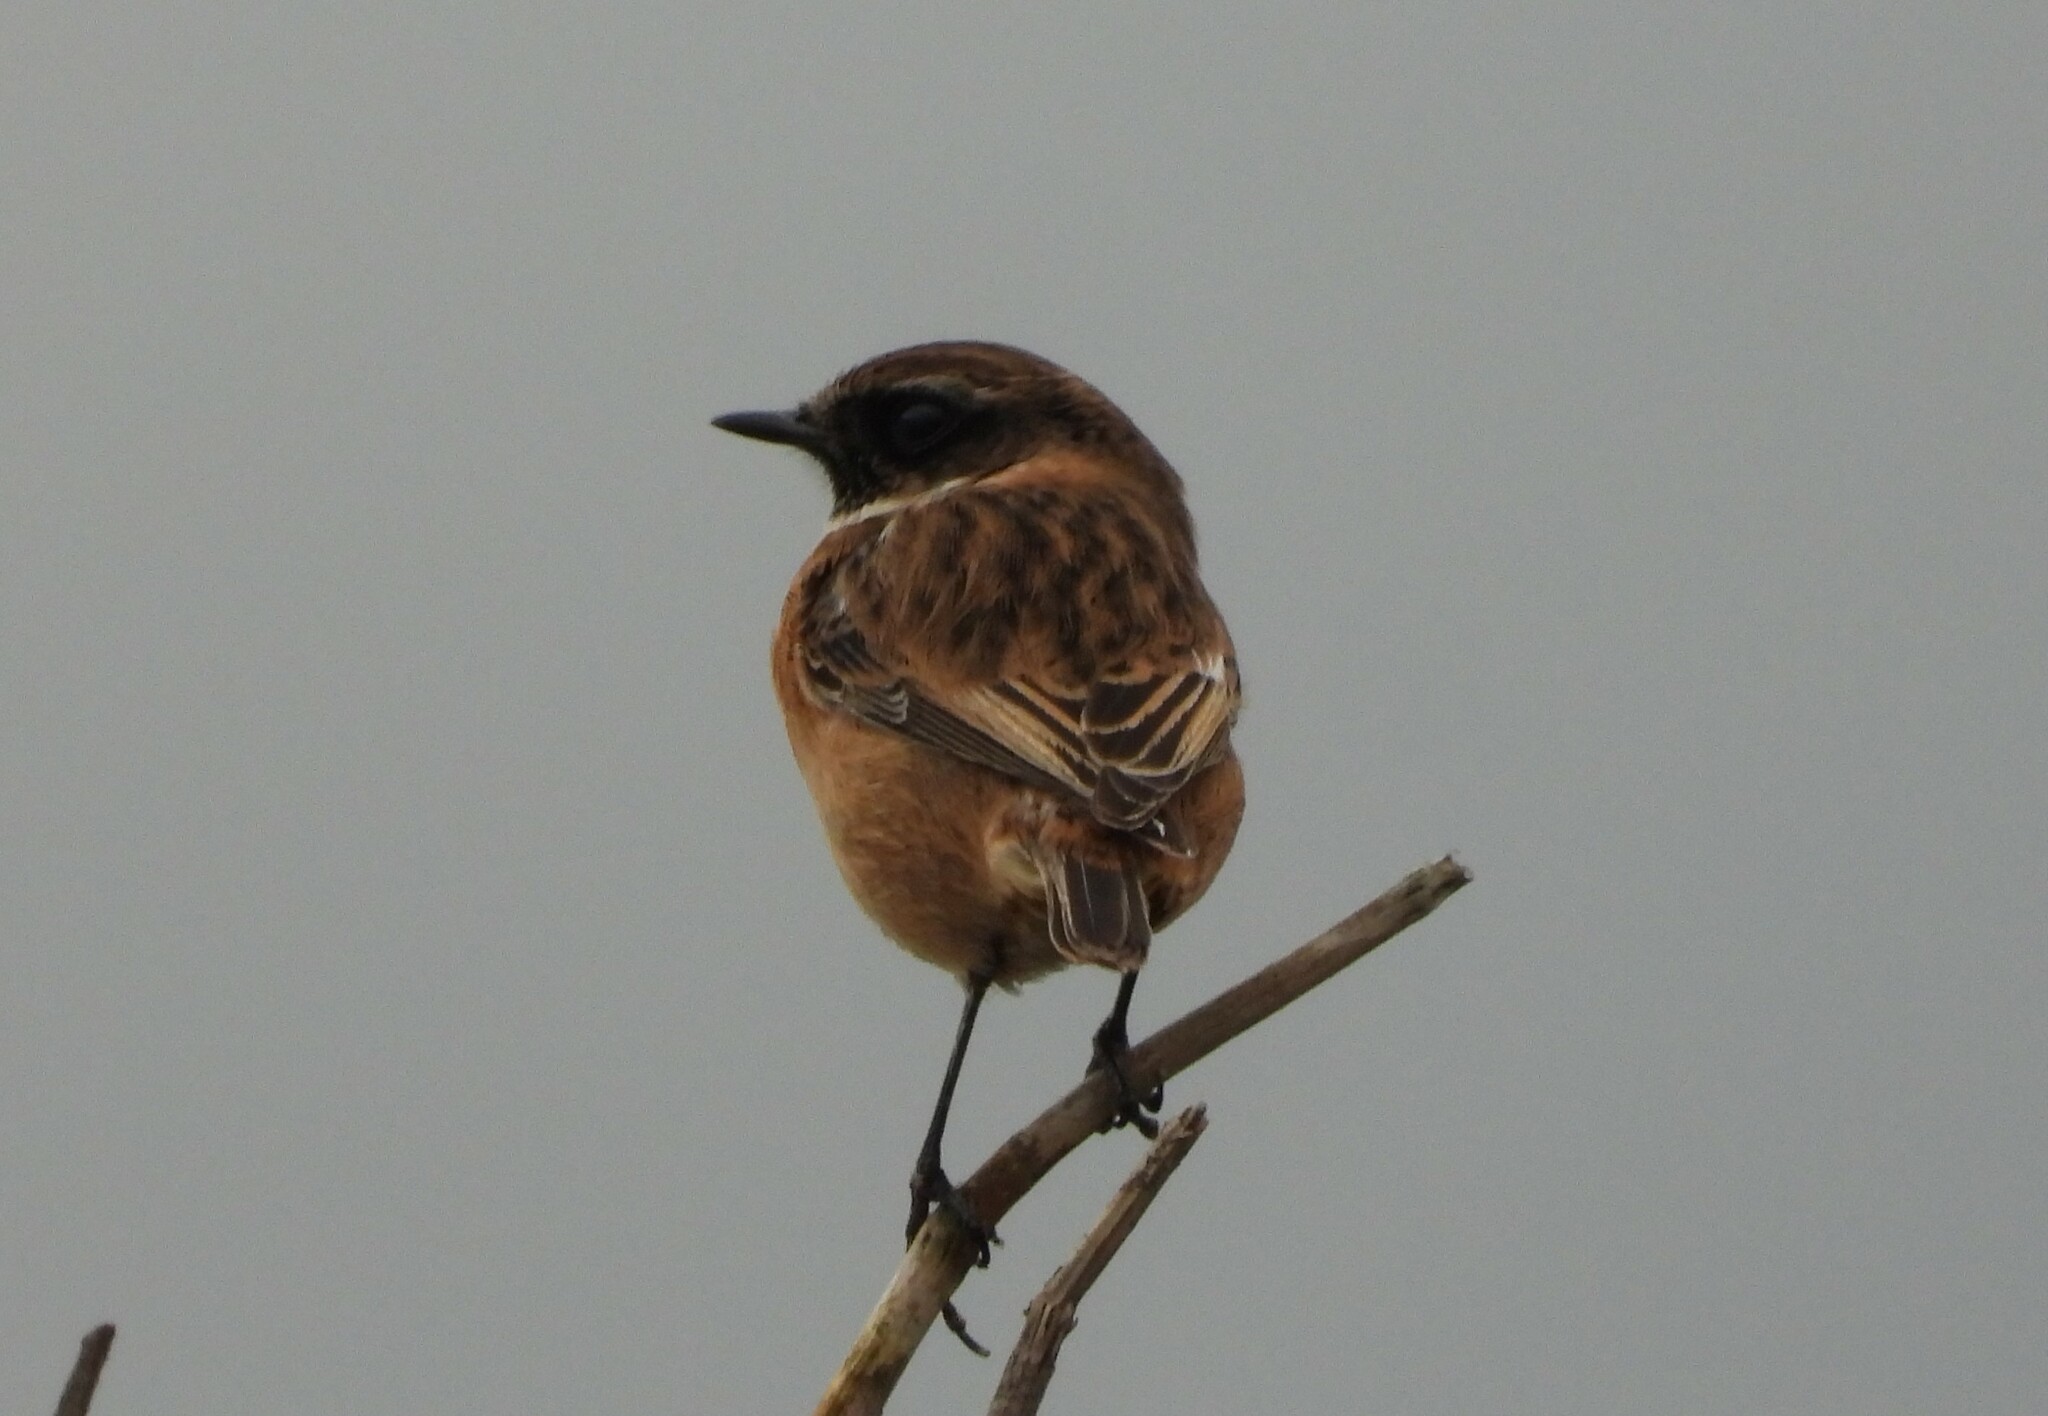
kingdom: Animalia
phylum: Chordata
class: Aves
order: Passeriformes
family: Muscicapidae
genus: Saxicola
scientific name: Saxicola rubicola
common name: European stonechat
